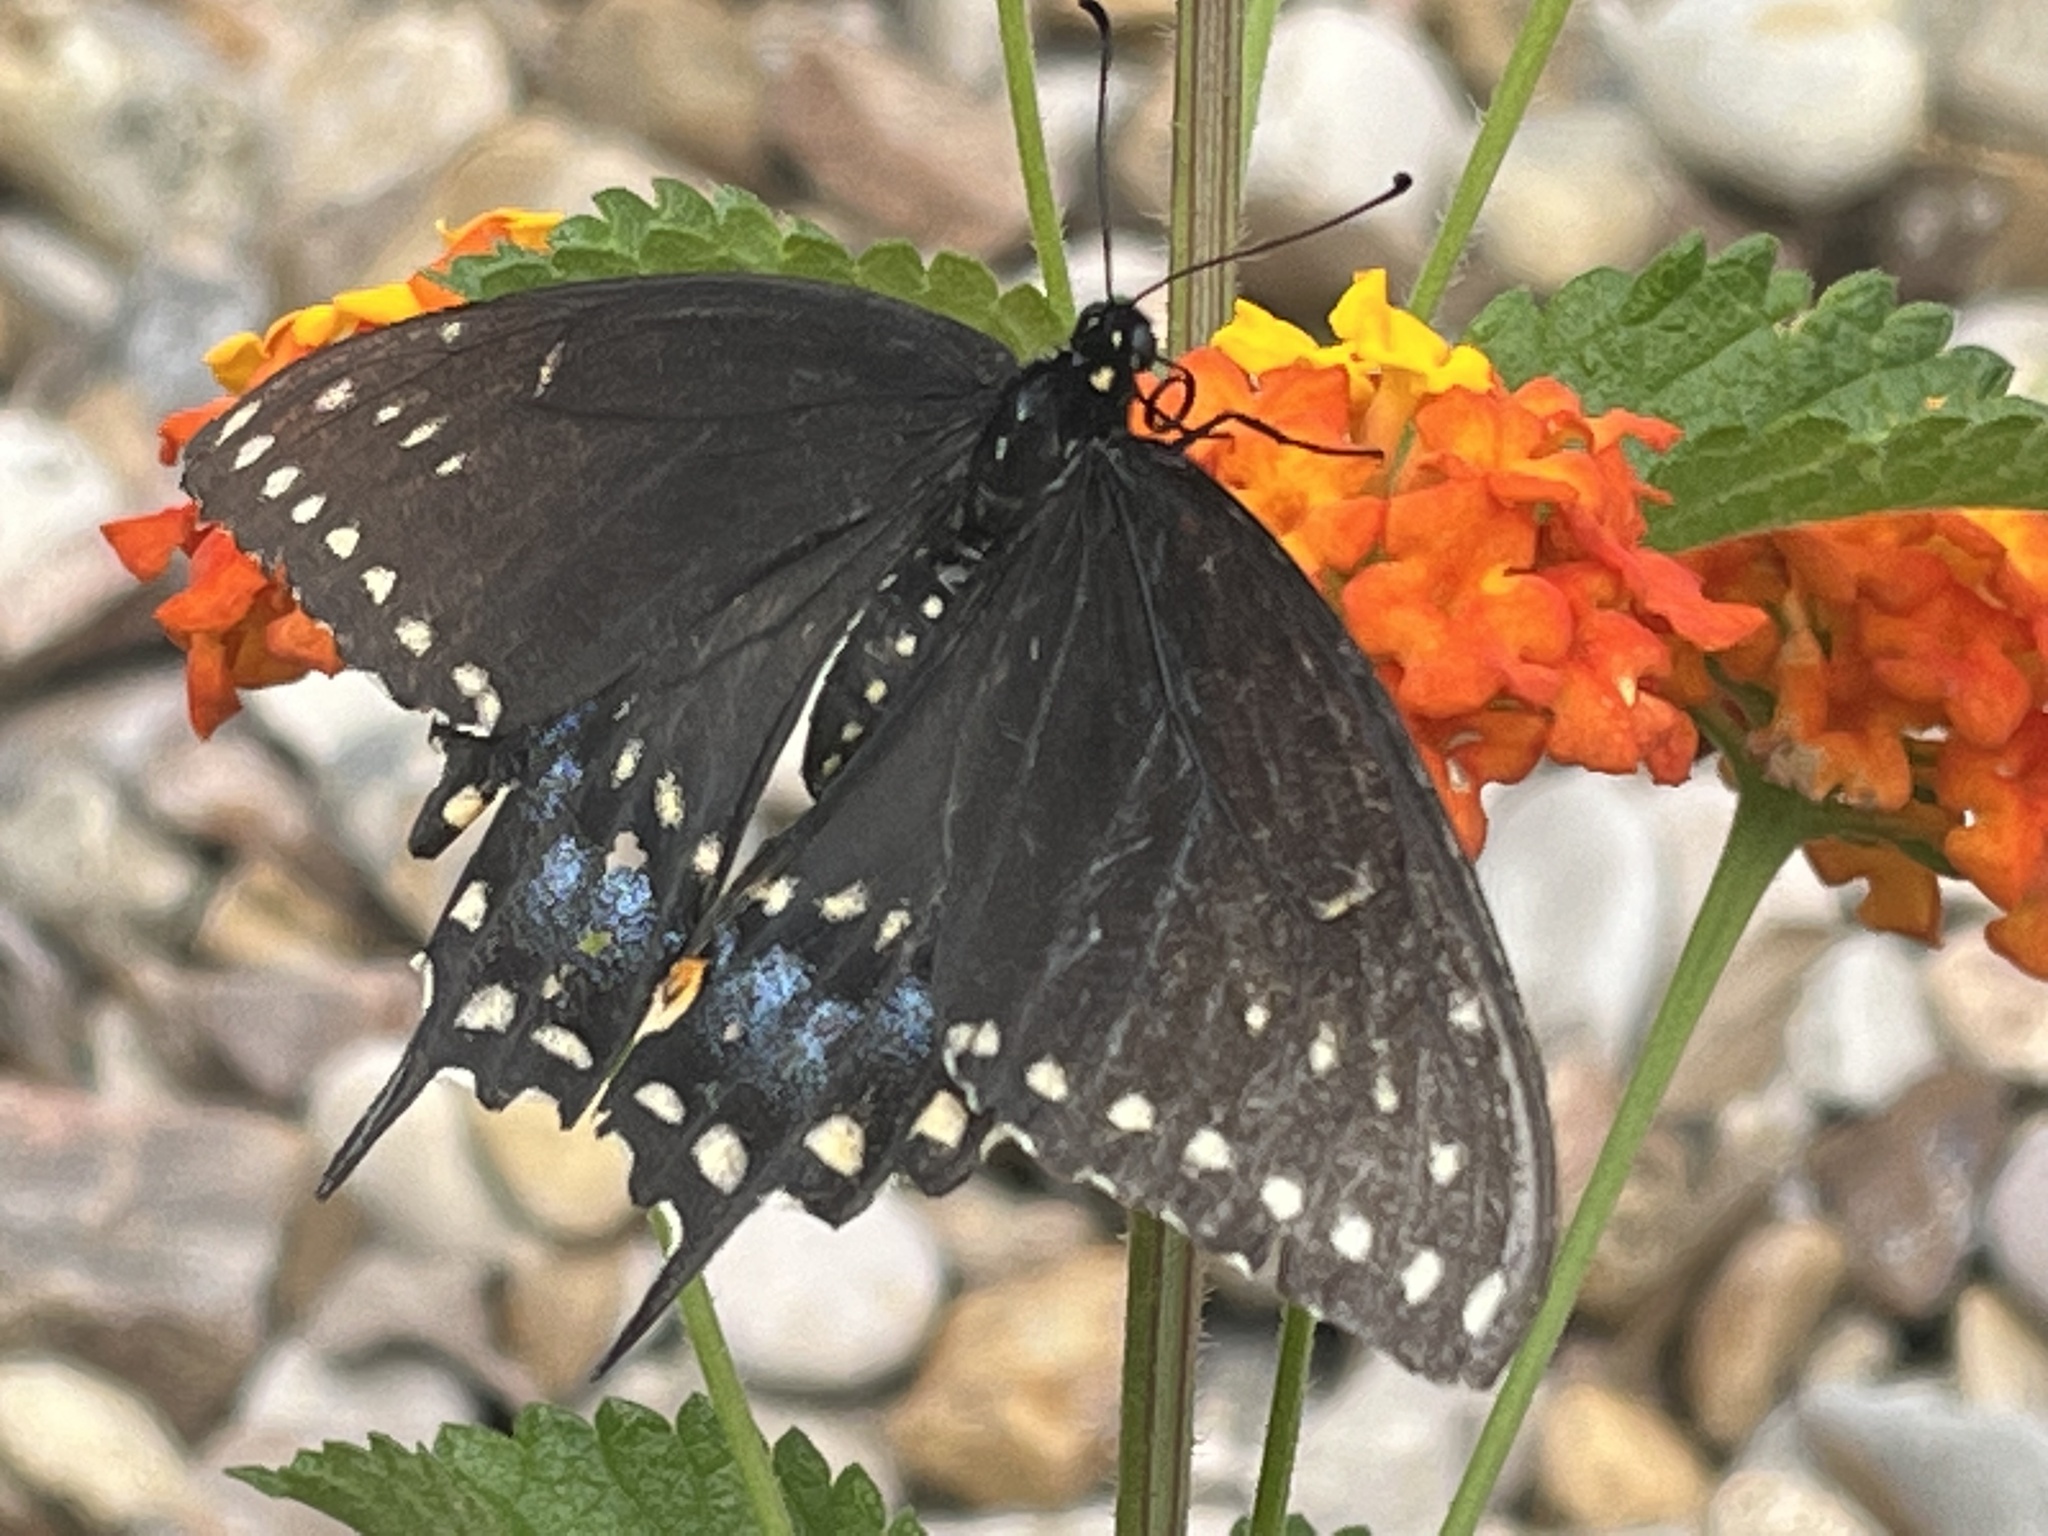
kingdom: Animalia
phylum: Arthropoda
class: Insecta
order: Lepidoptera
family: Papilionidae
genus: Papilio
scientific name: Papilio polyxenes
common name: Black swallowtail
